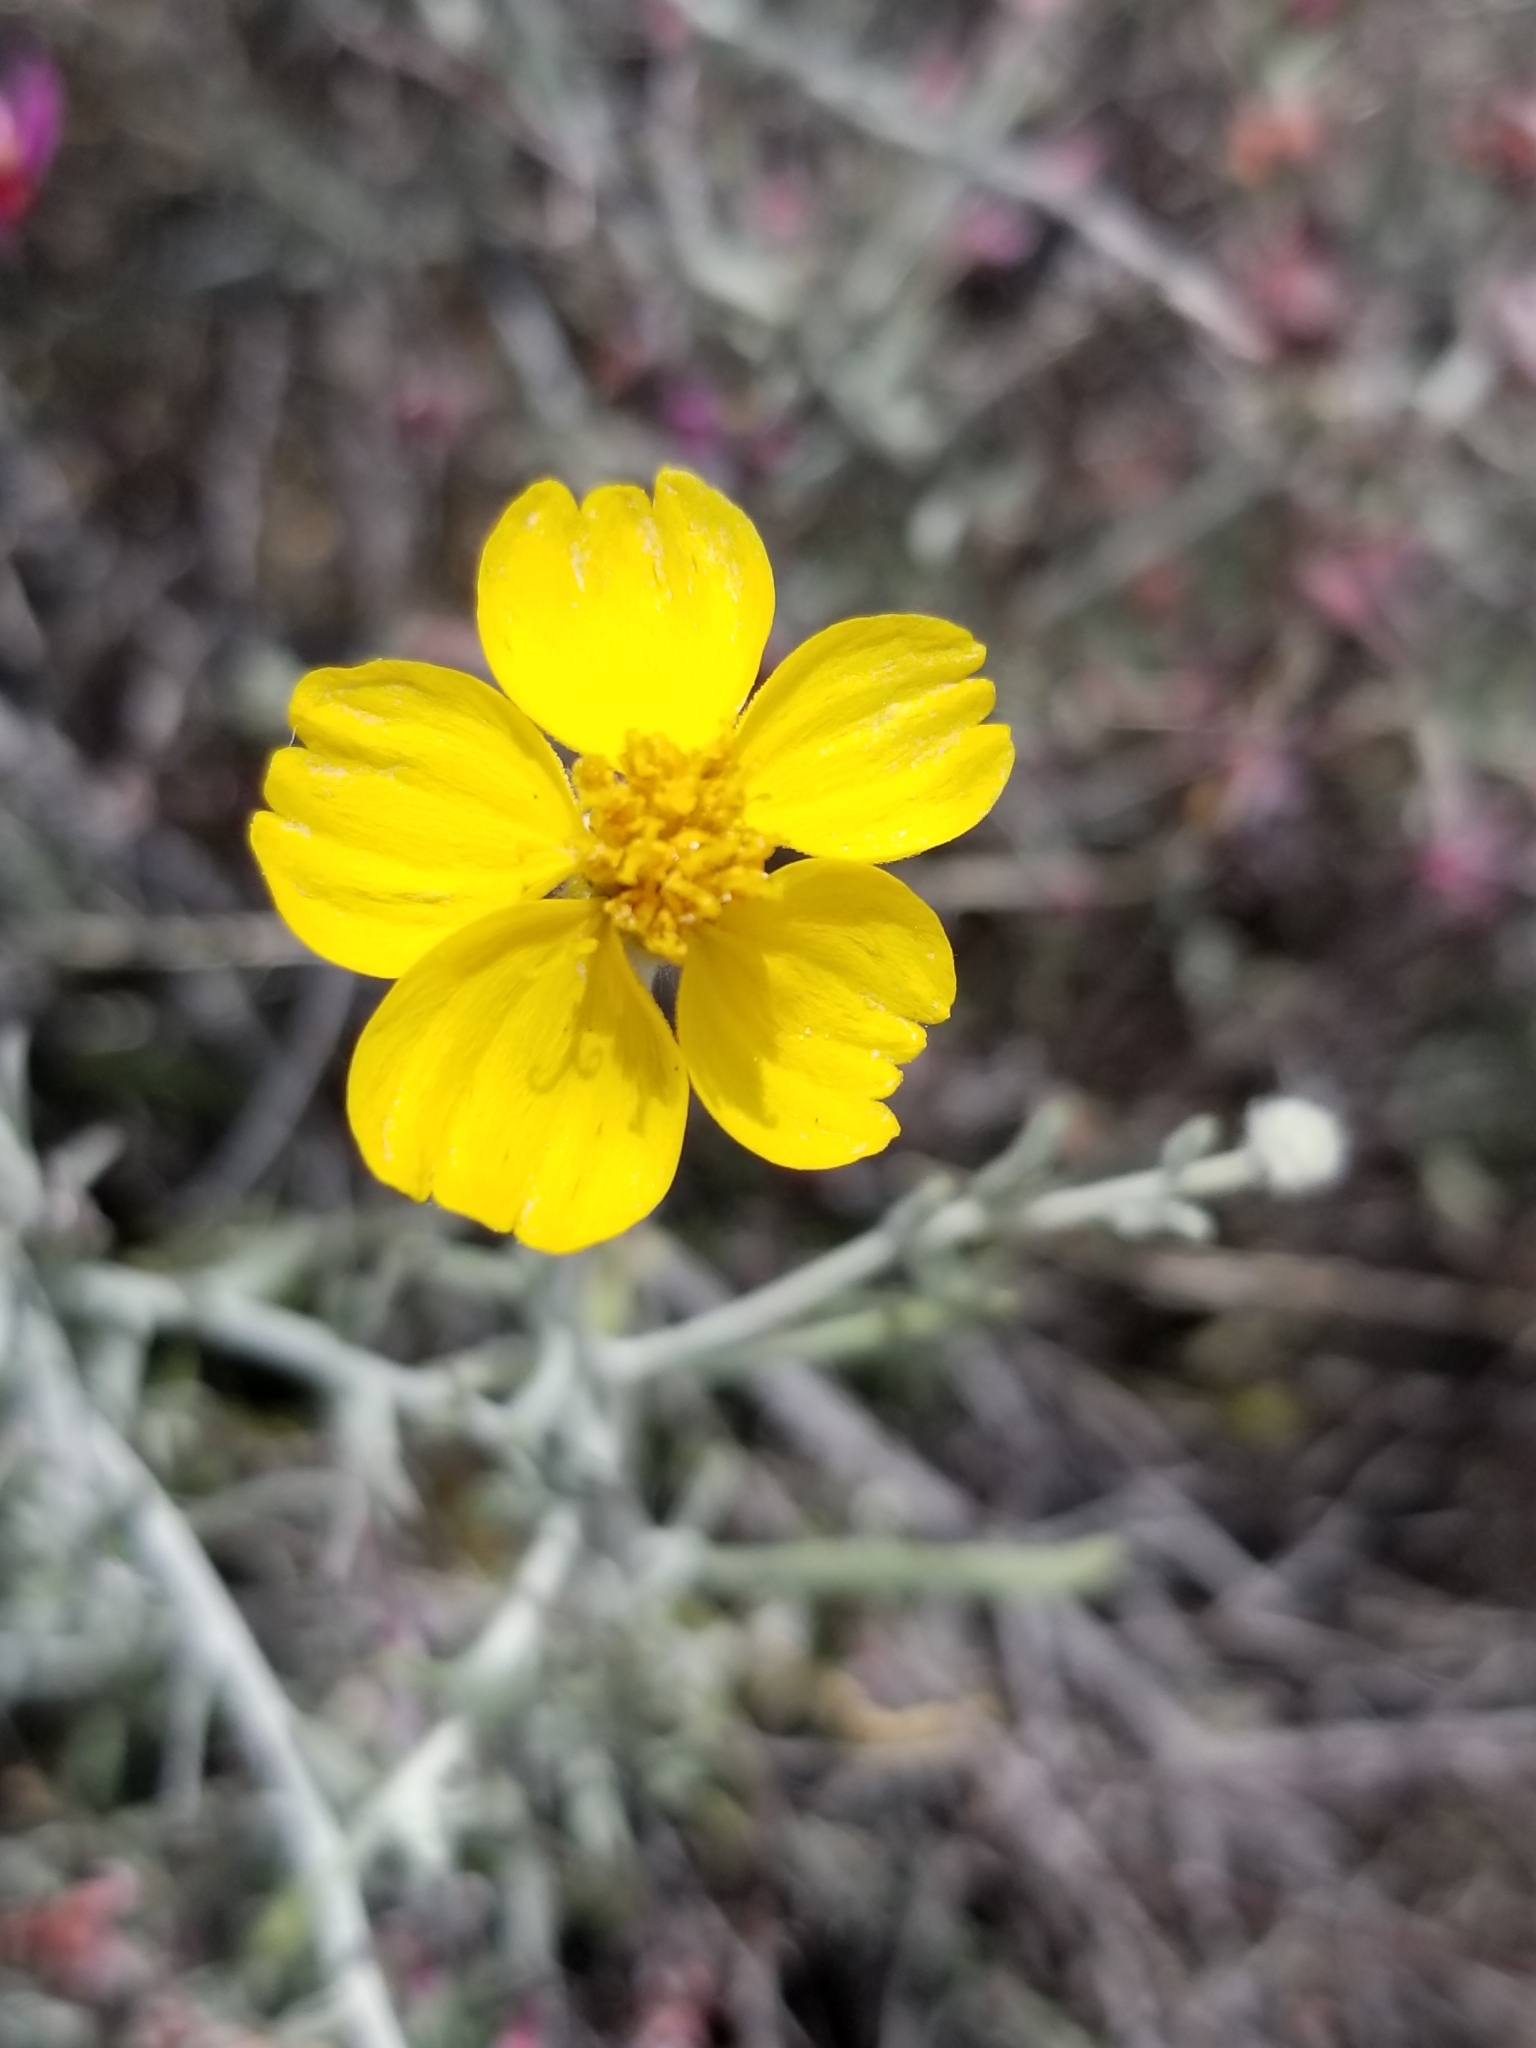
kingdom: Plantae
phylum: Tracheophyta
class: Magnoliopsida
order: Asterales
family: Asteraceae
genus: Psilostrophe
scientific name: Psilostrophe cooperi
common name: White-stem paper-flower
